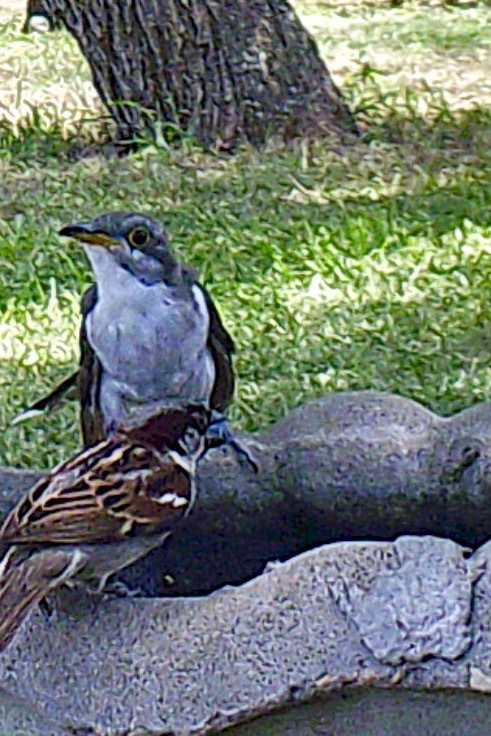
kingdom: Animalia
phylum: Chordata
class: Aves
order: Cuculiformes
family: Cuculidae
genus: Coccyzus
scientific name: Coccyzus americanus
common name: Yellow-billed cuckoo
